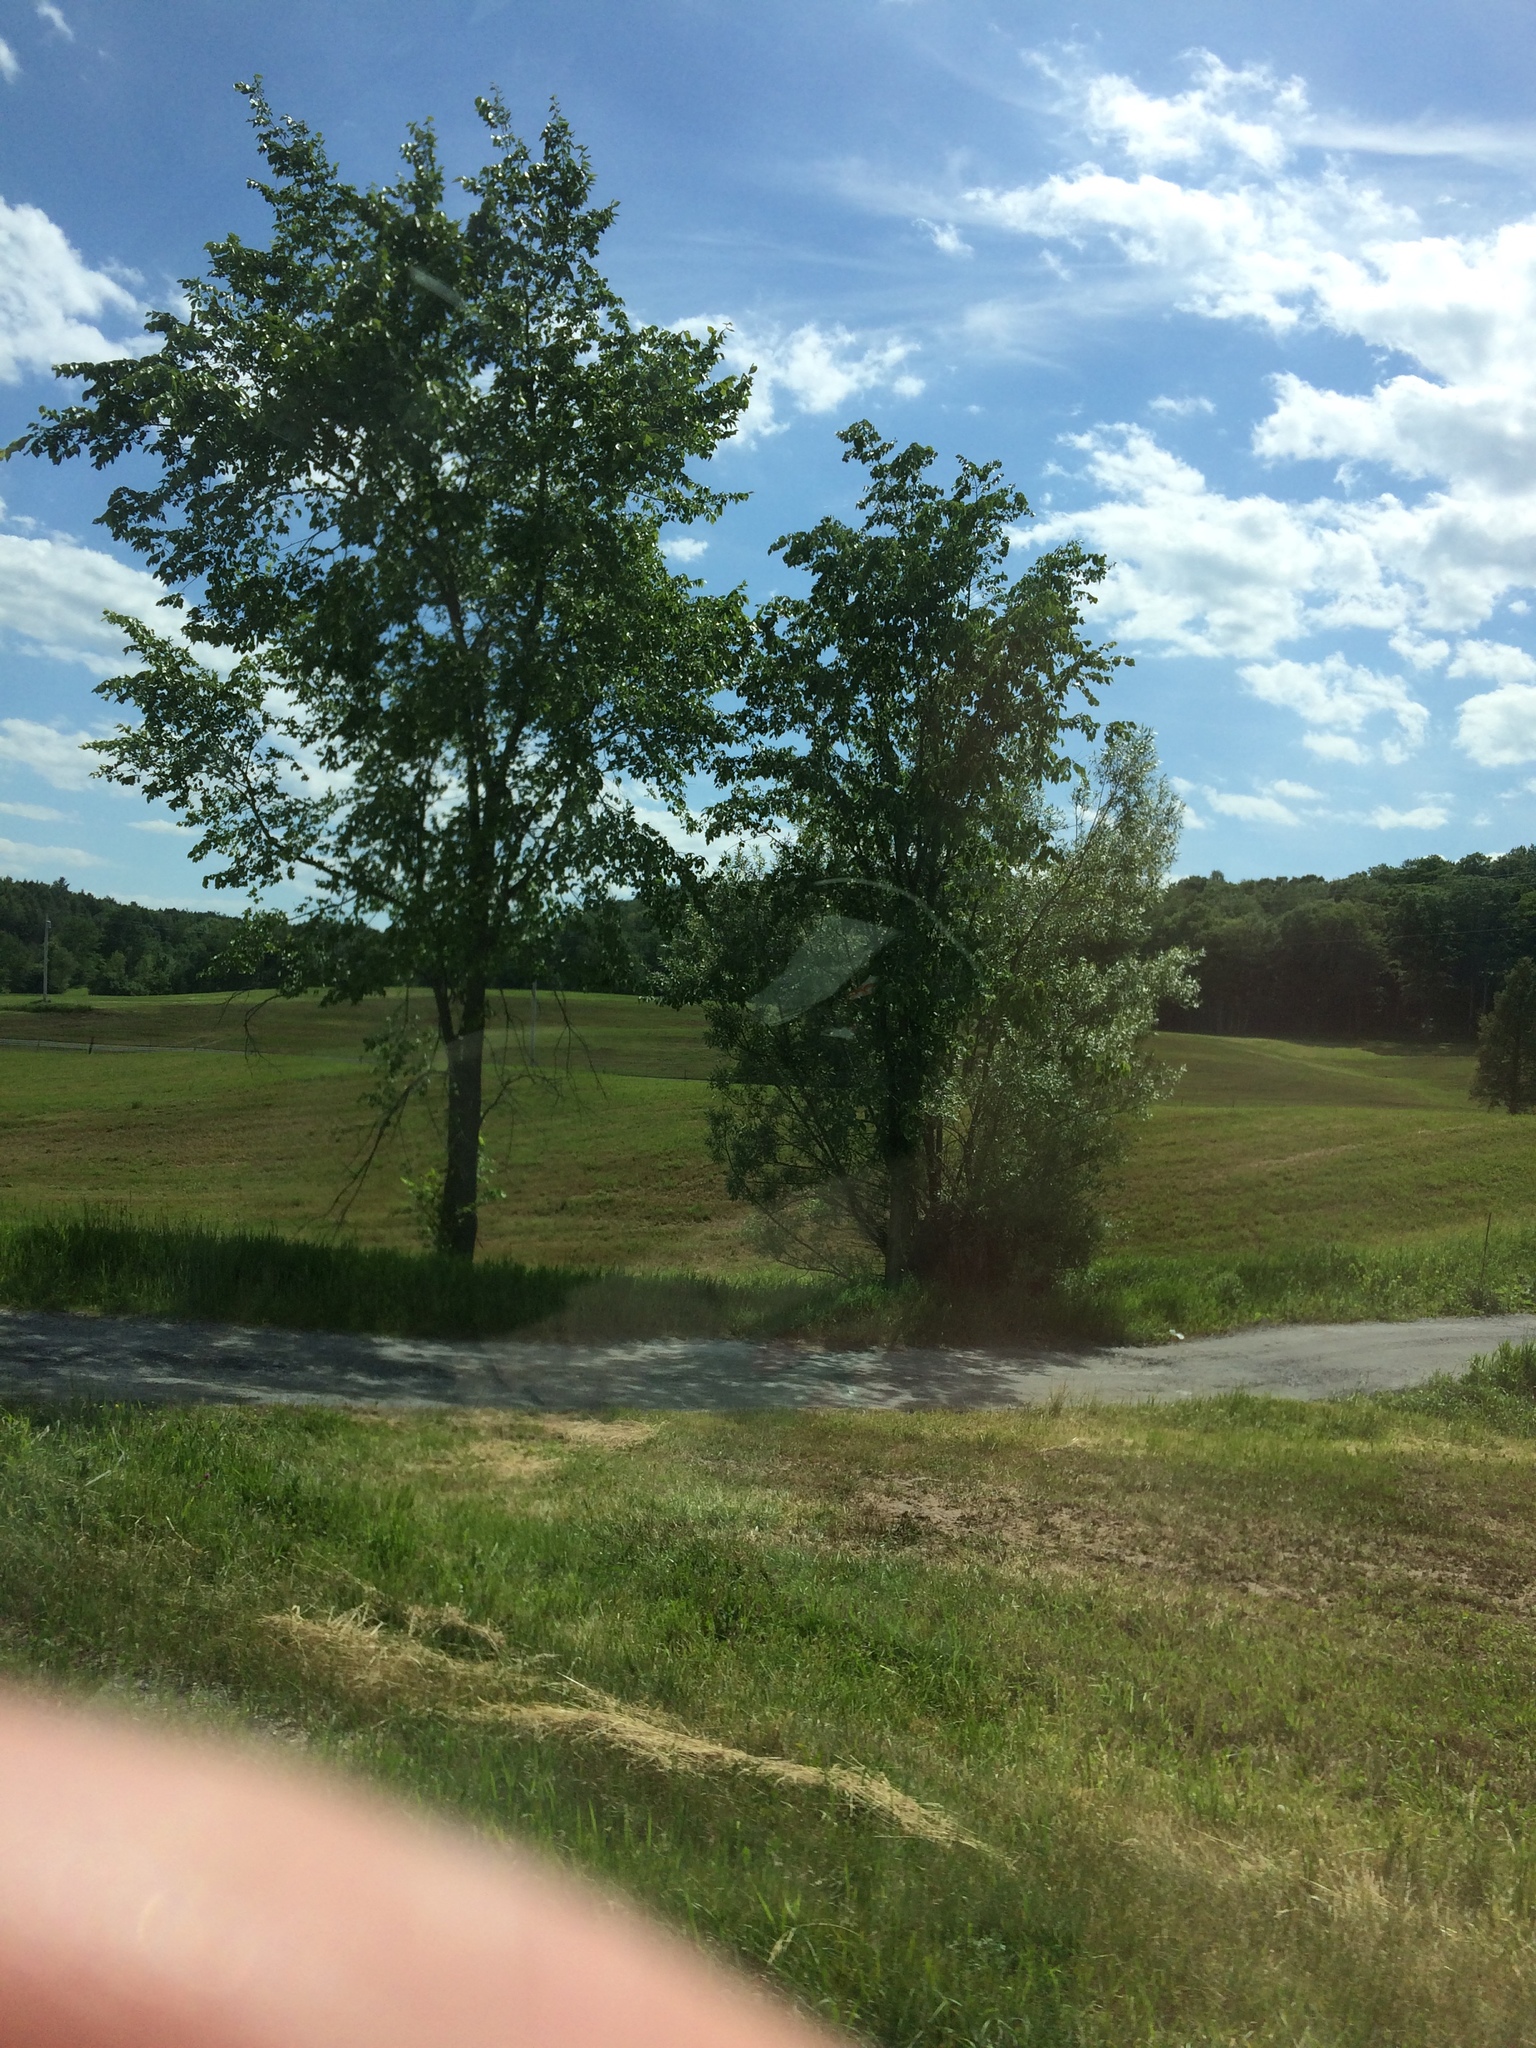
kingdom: Plantae
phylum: Tracheophyta
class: Magnoliopsida
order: Rosales
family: Ulmaceae
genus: Ulmus
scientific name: Ulmus americana
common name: American elm
